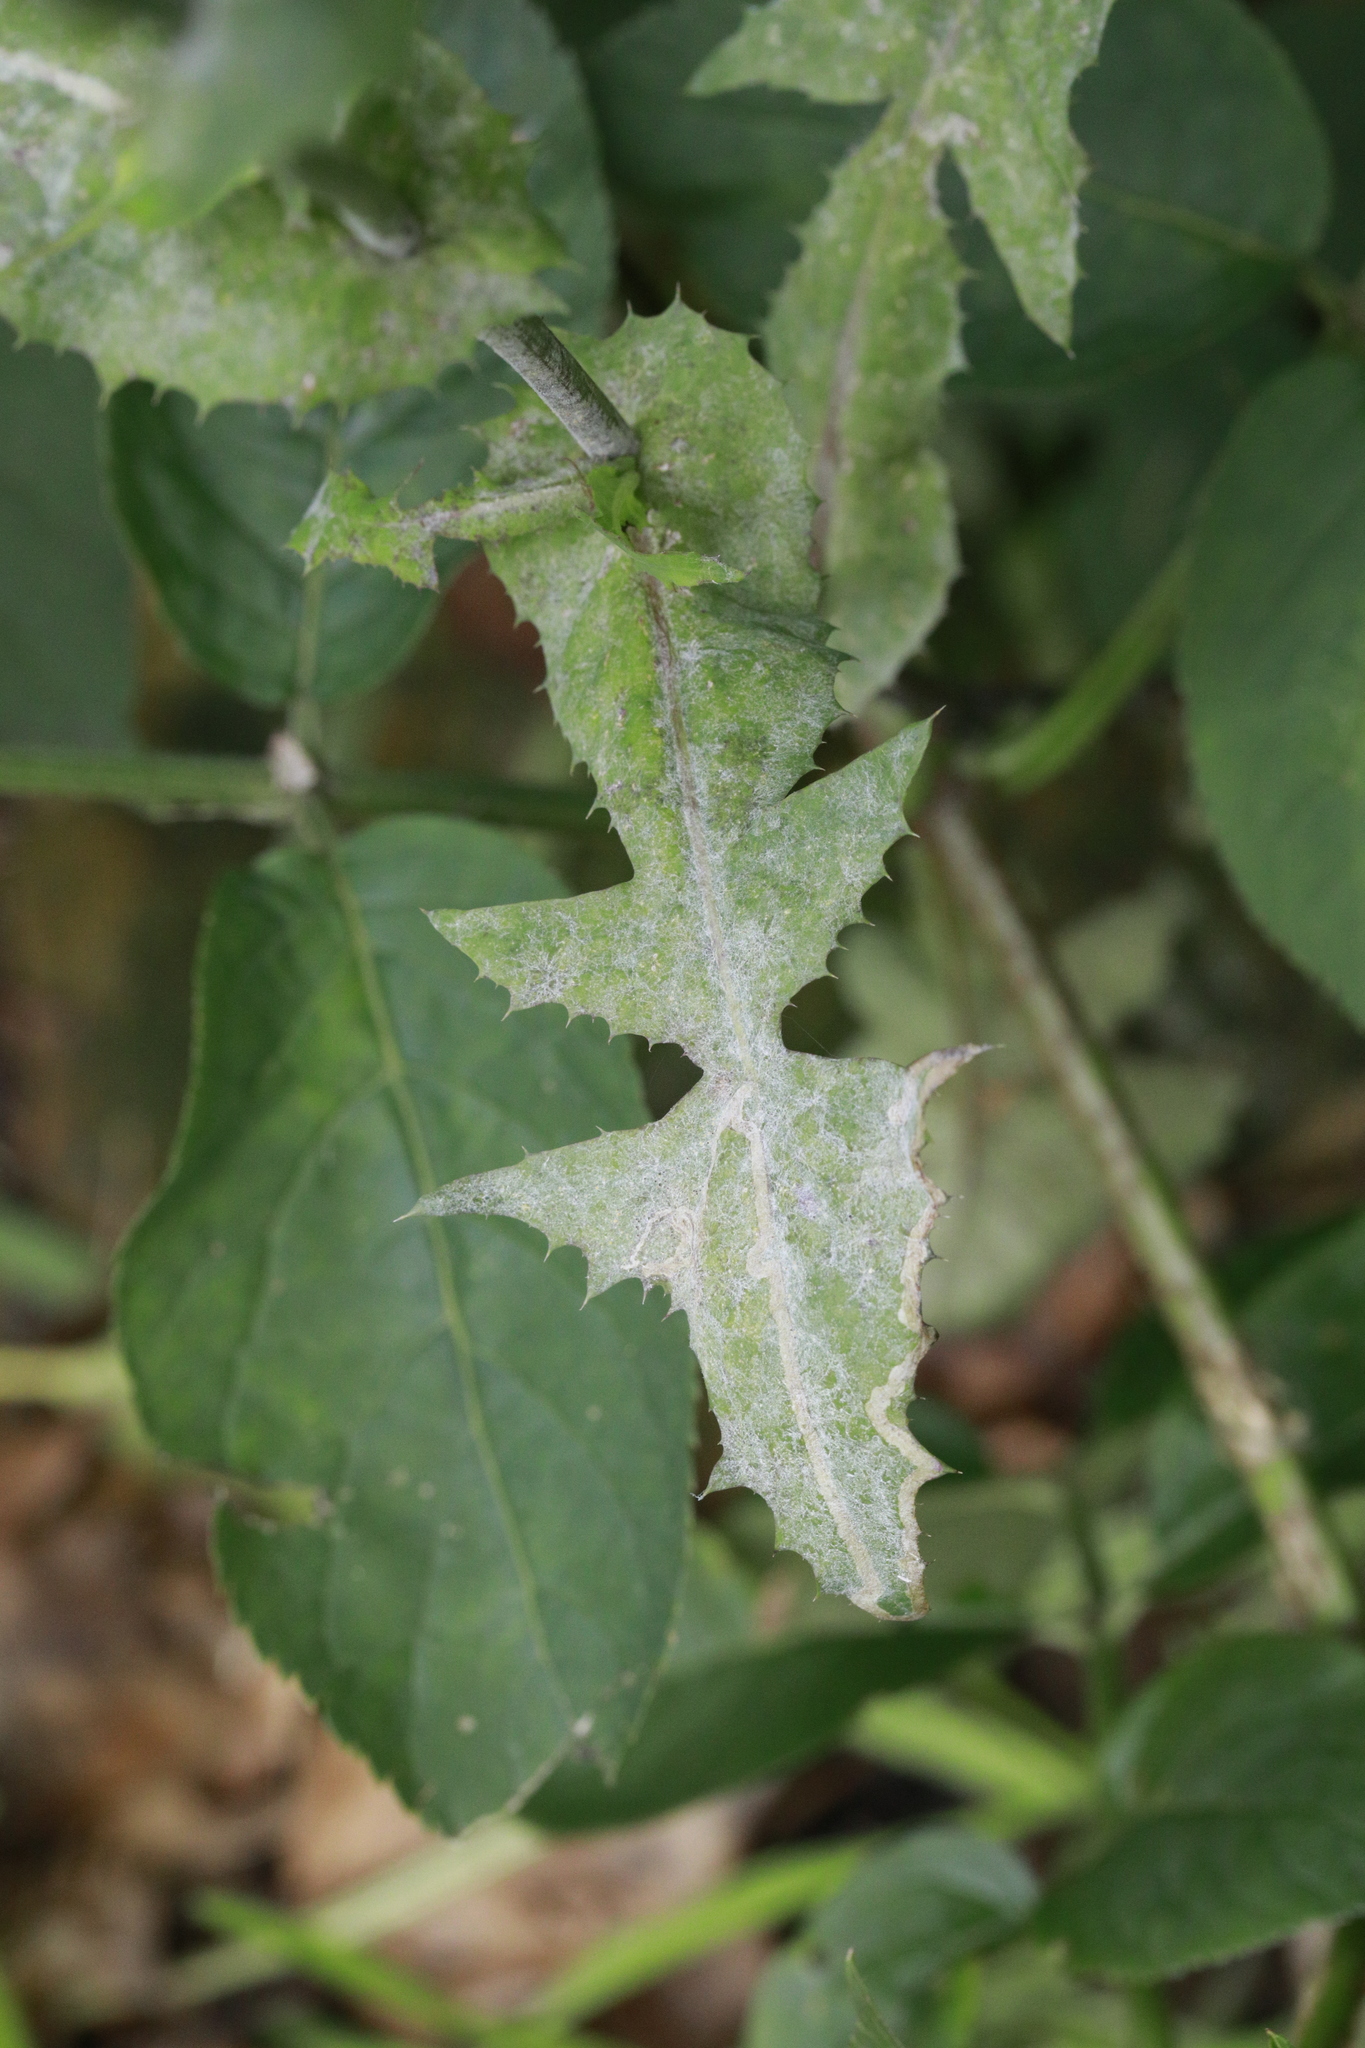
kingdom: Fungi
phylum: Ascomycota
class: Leotiomycetes
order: Helotiales
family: Erysiphaceae
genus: Golovinomyces
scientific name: Golovinomyces sonchicola
